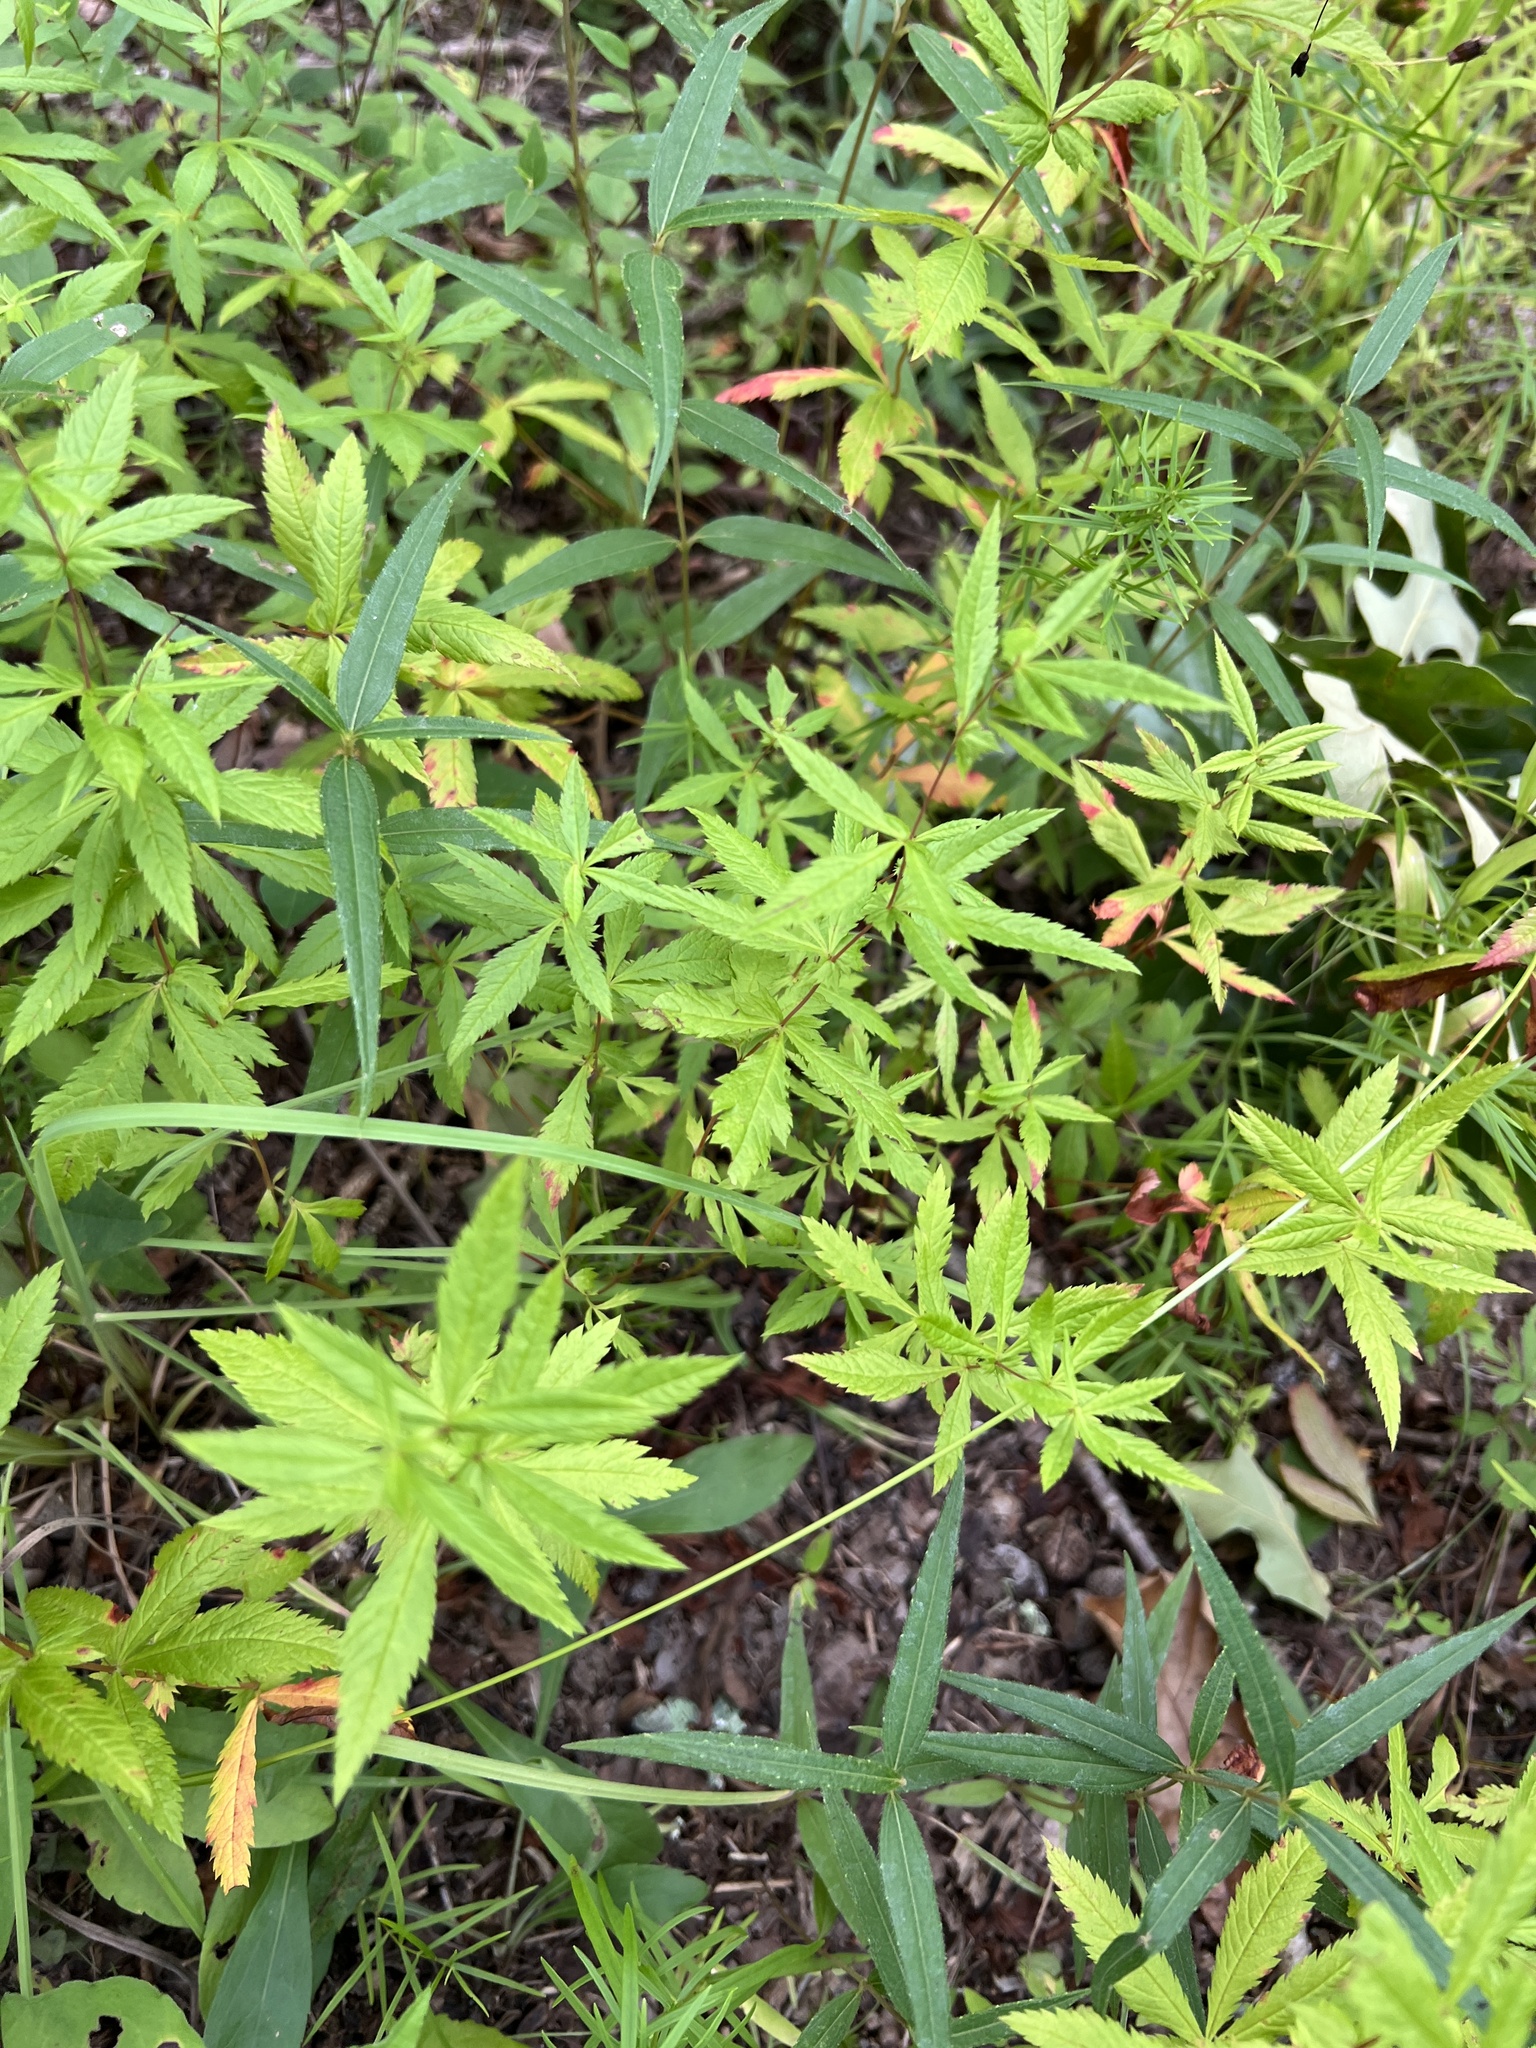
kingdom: Plantae
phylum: Tracheophyta
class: Magnoliopsida
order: Rosales
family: Rosaceae
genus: Gillenia
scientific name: Gillenia stipulata
